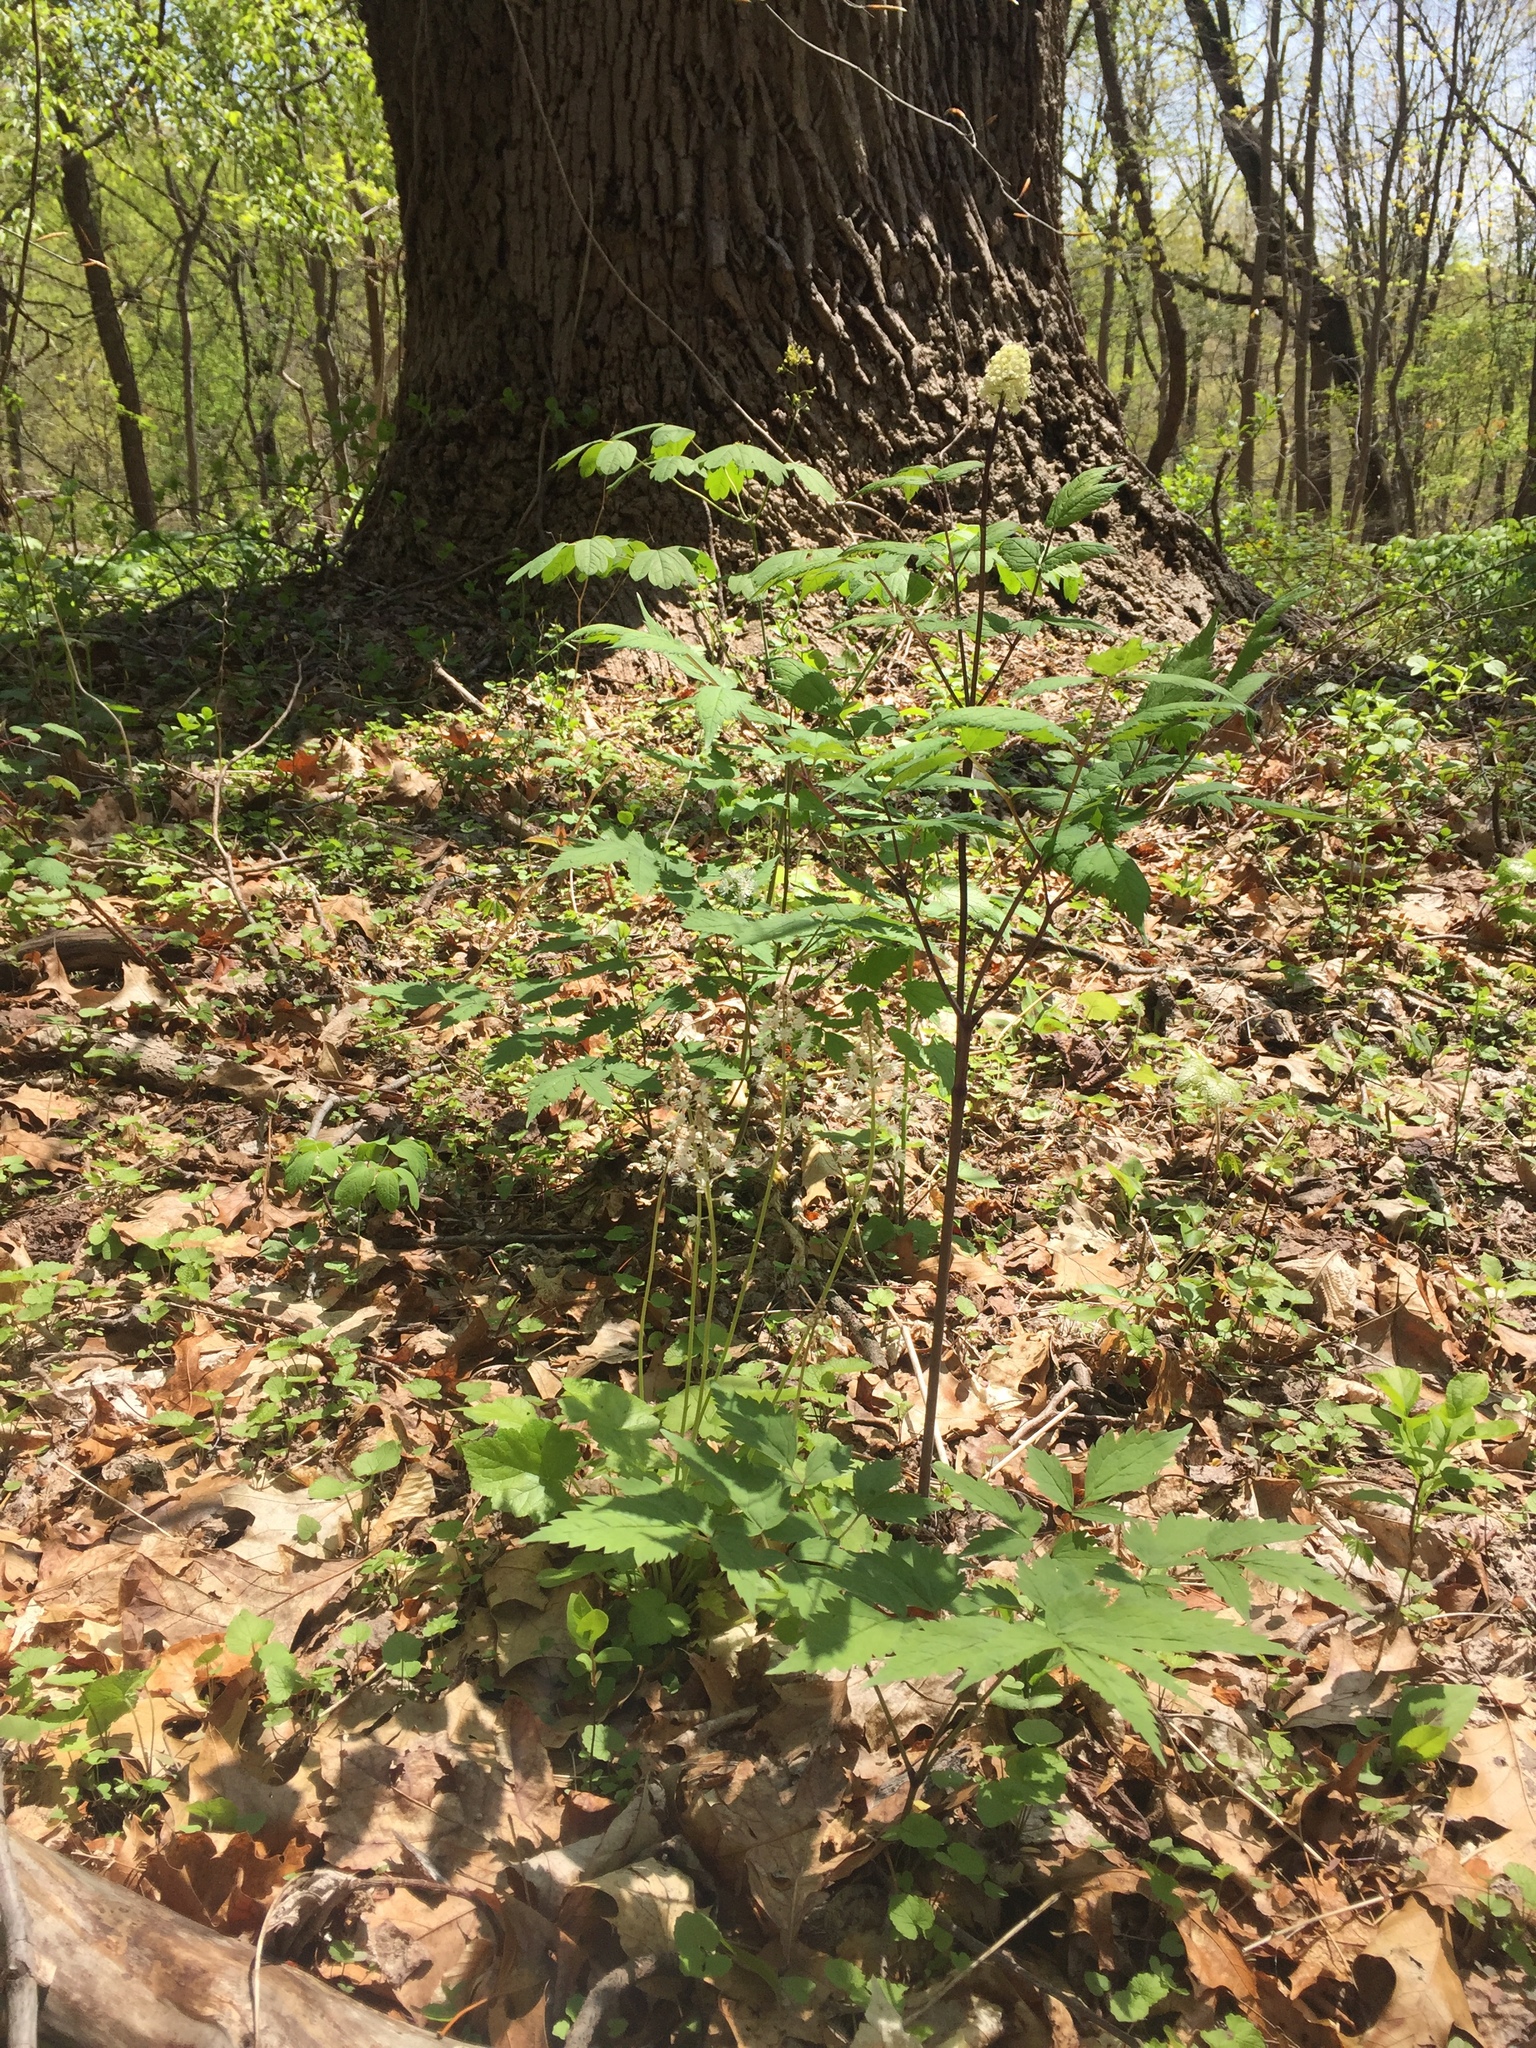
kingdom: Plantae
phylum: Tracheophyta
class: Magnoliopsida
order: Ranunculales
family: Ranunculaceae
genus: Actaea
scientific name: Actaea pachypoda
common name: Doll's-eyes
